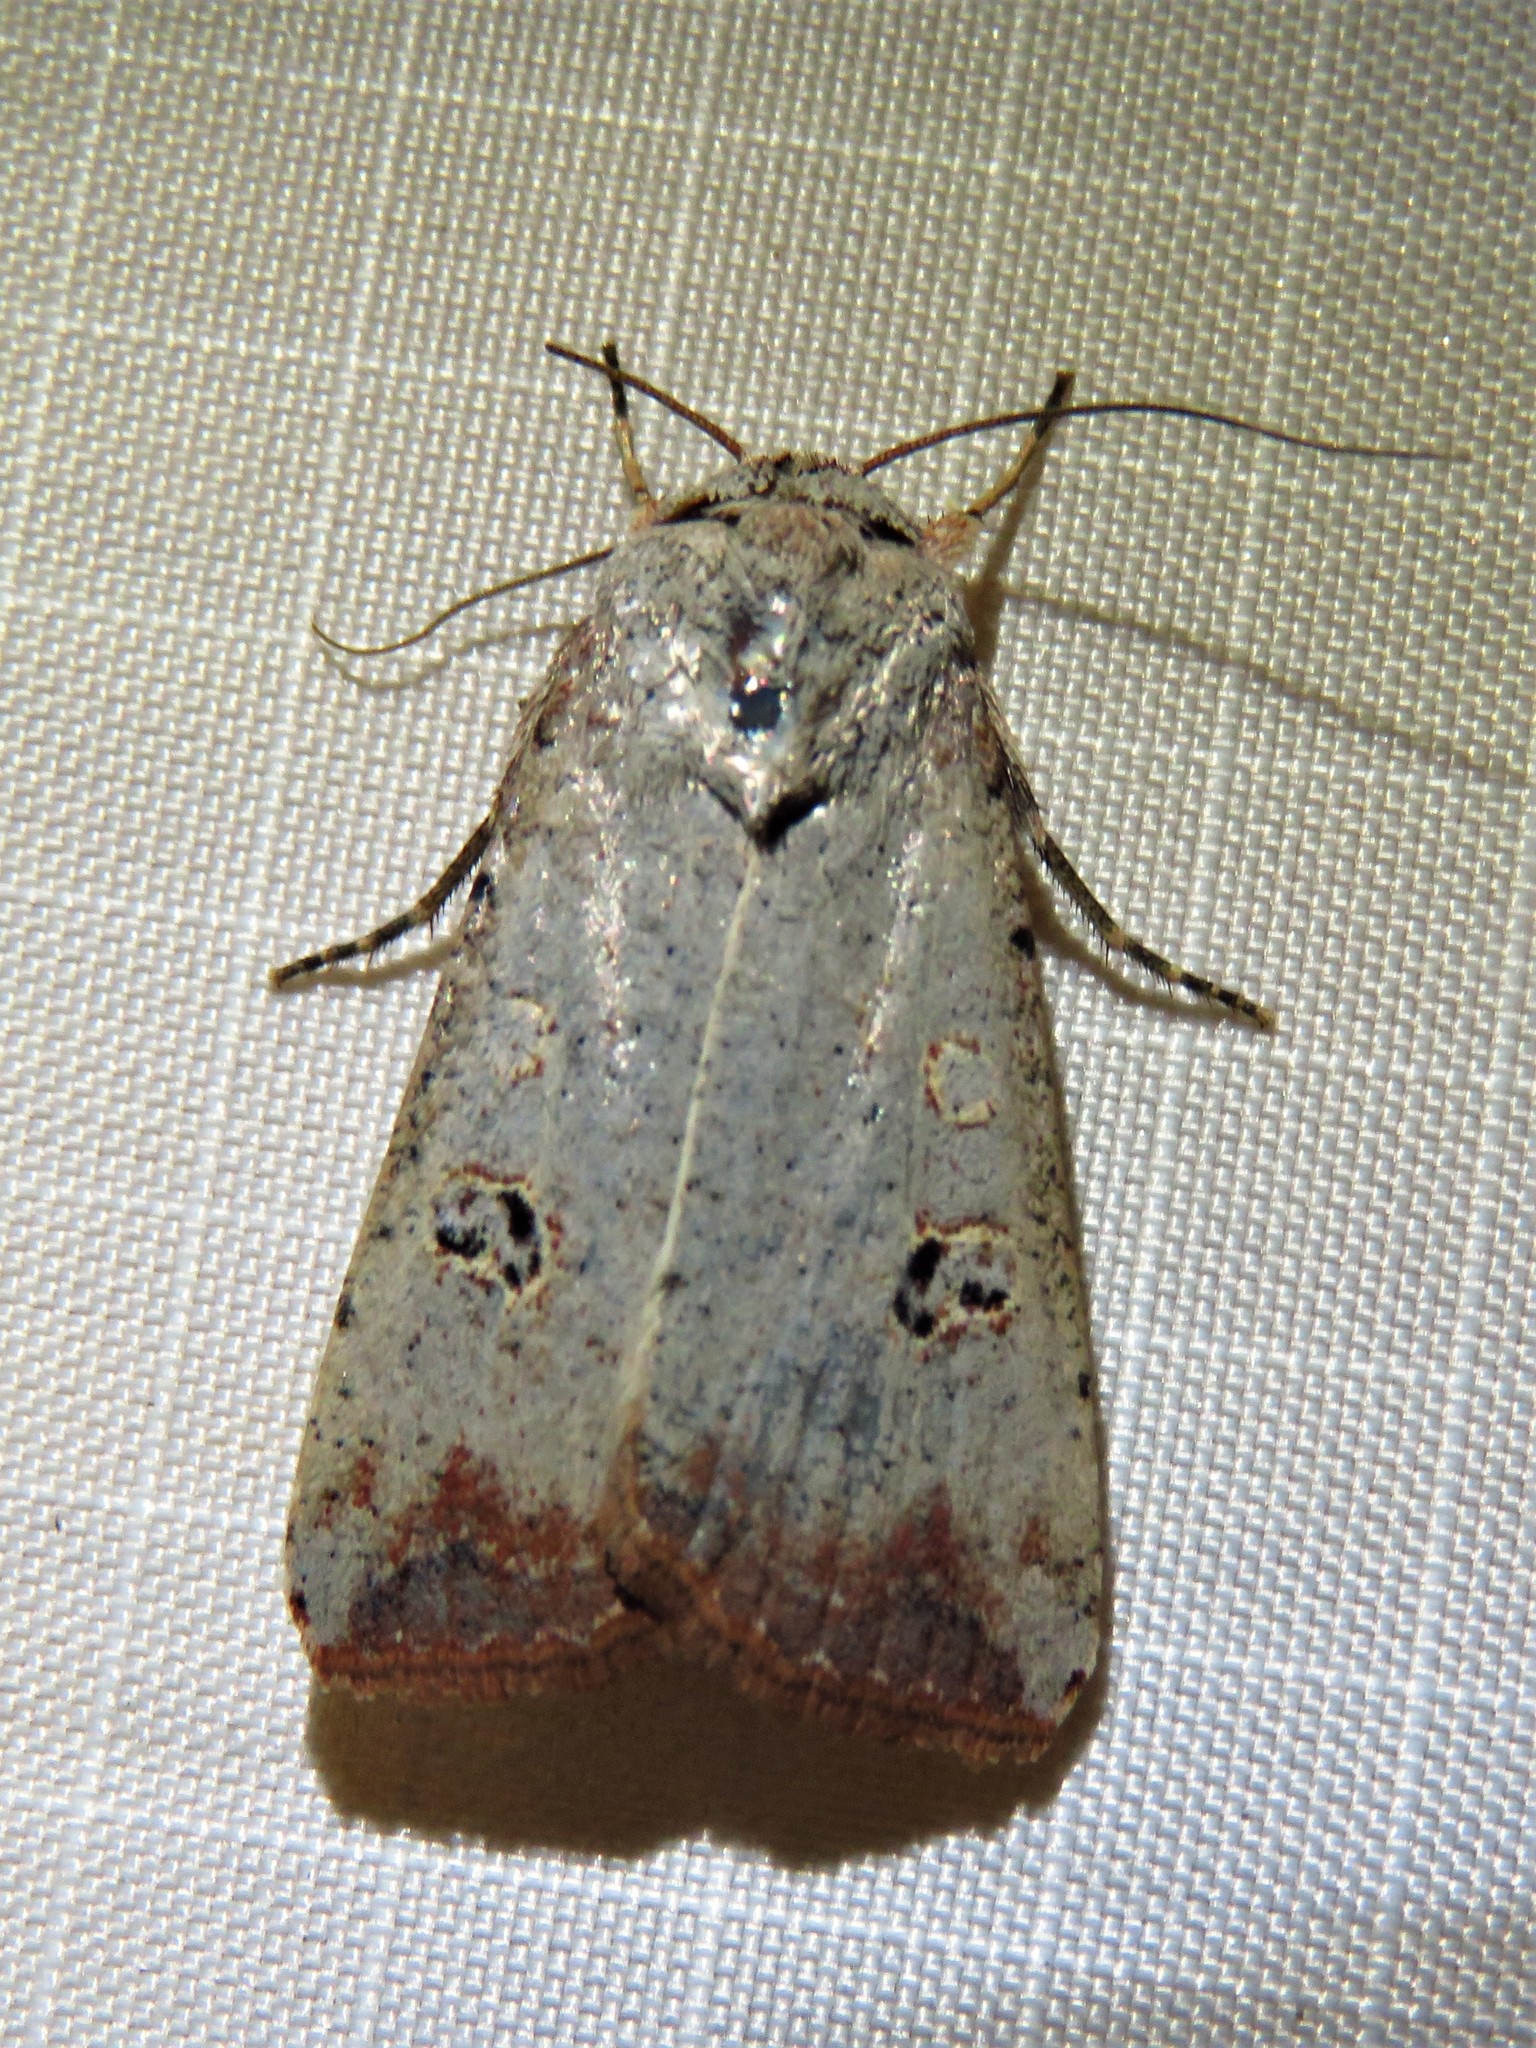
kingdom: Animalia
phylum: Arthropoda
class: Insecta
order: Lepidoptera
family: Noctuidae
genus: Anicla
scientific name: Anicla infecta
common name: Green cutworm
